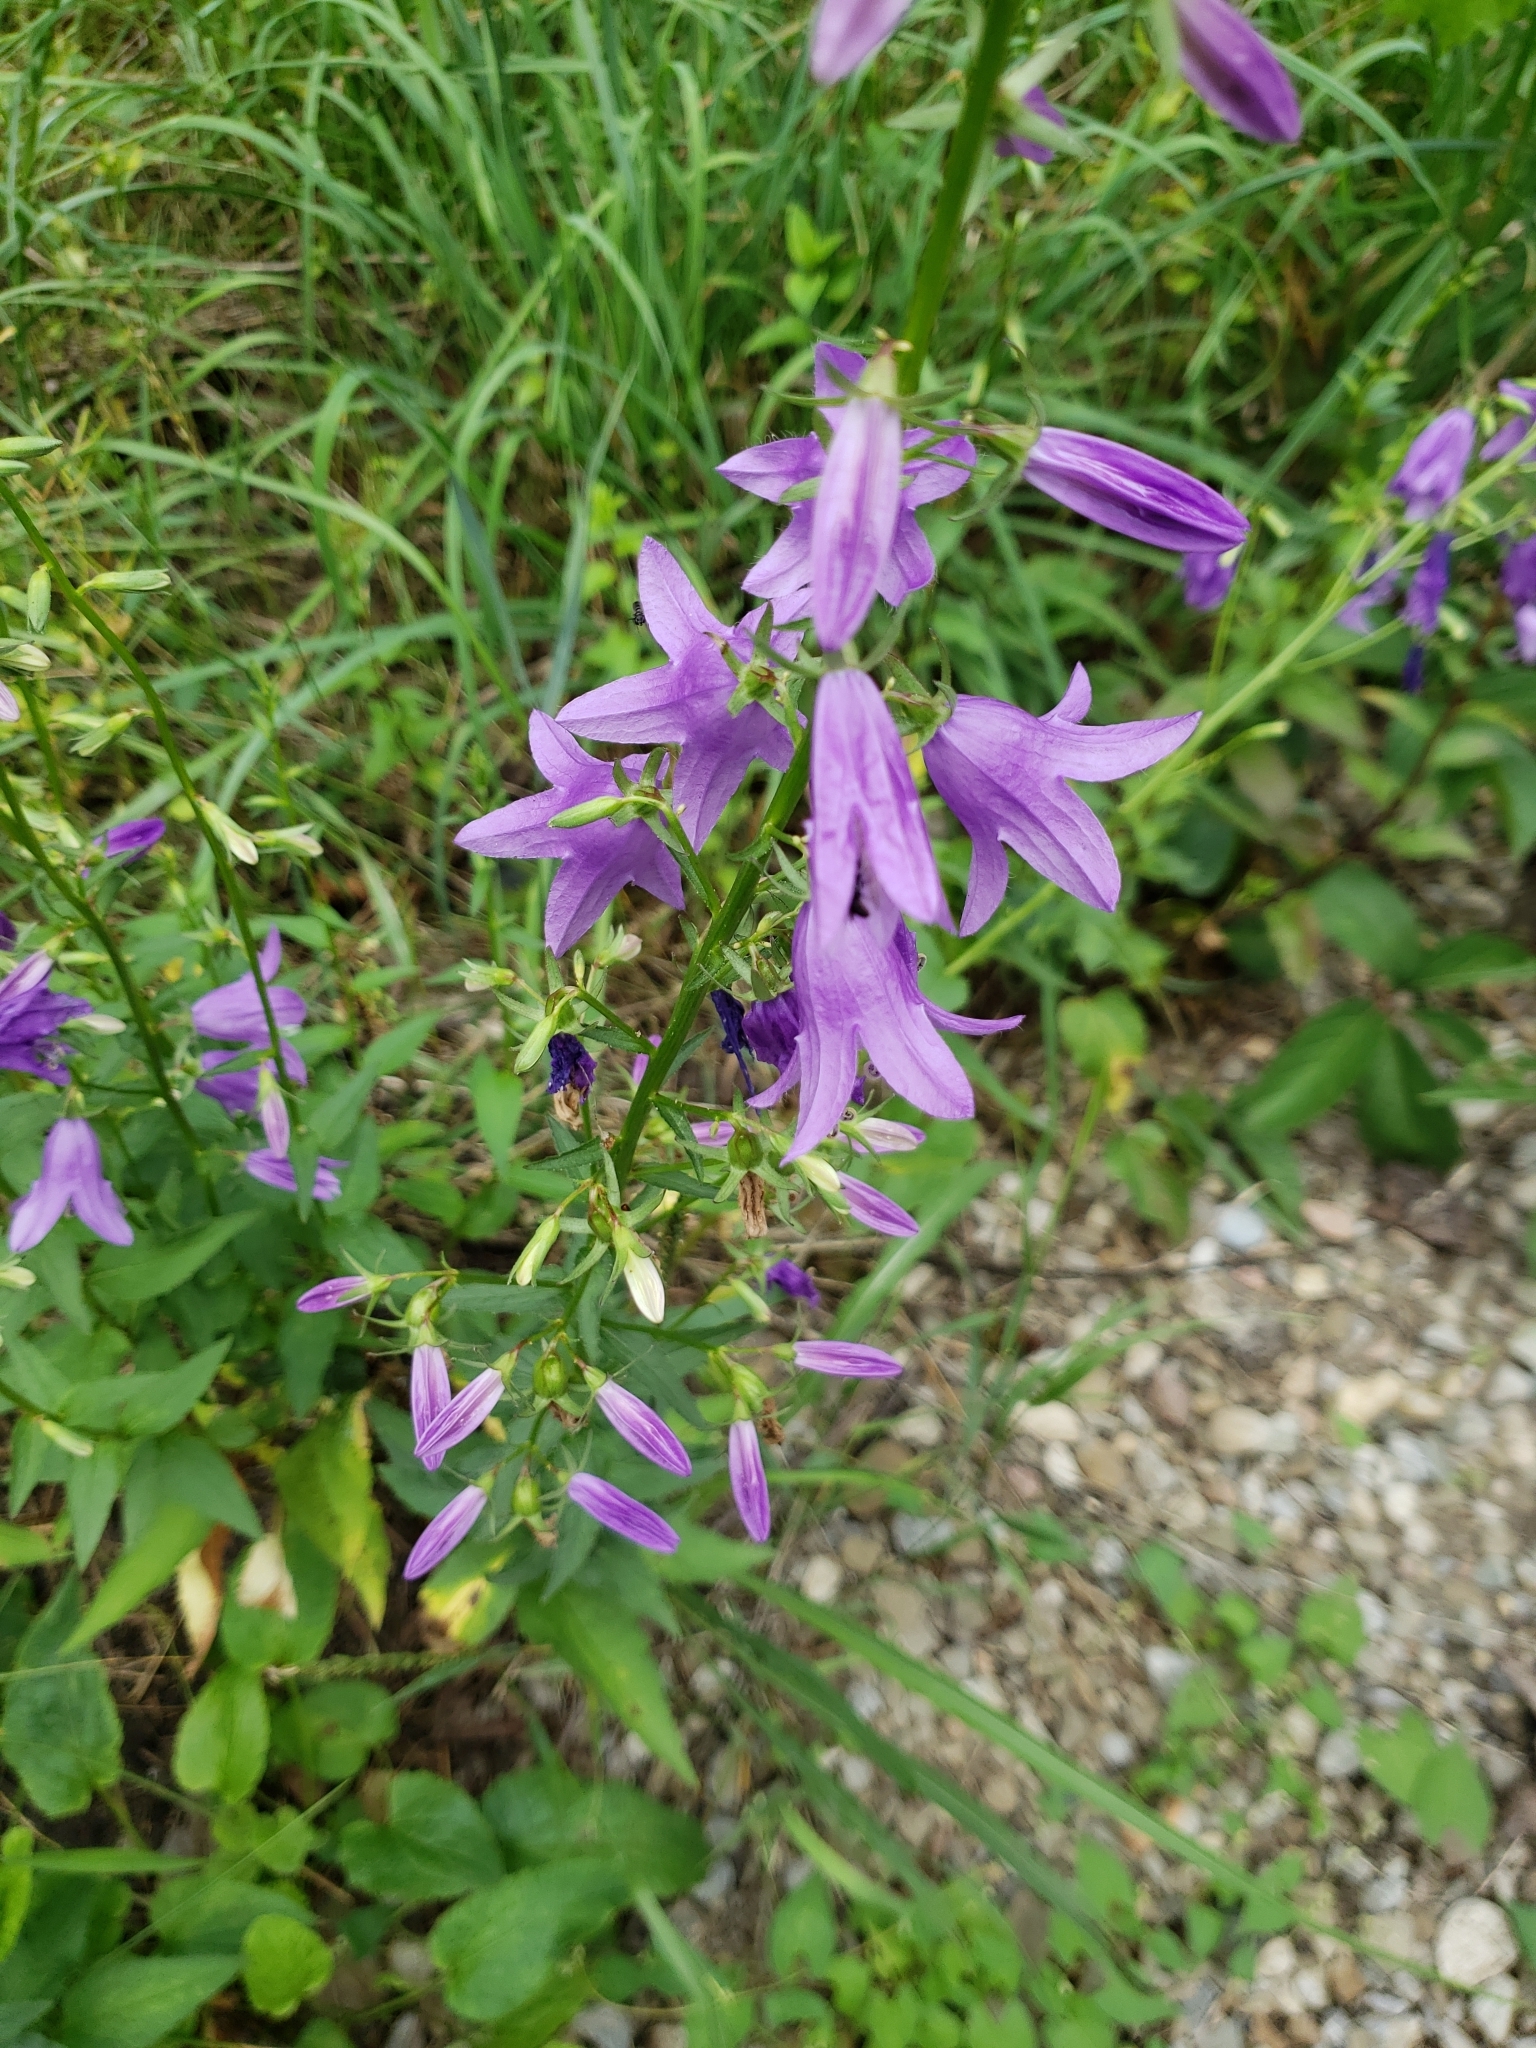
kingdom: Plantae
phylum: Tracheophyta
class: Magnoliopsida
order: Asterales
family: Campanulaceae
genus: Campanula
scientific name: Campanula rapunculoides
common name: Creeping bellflower
